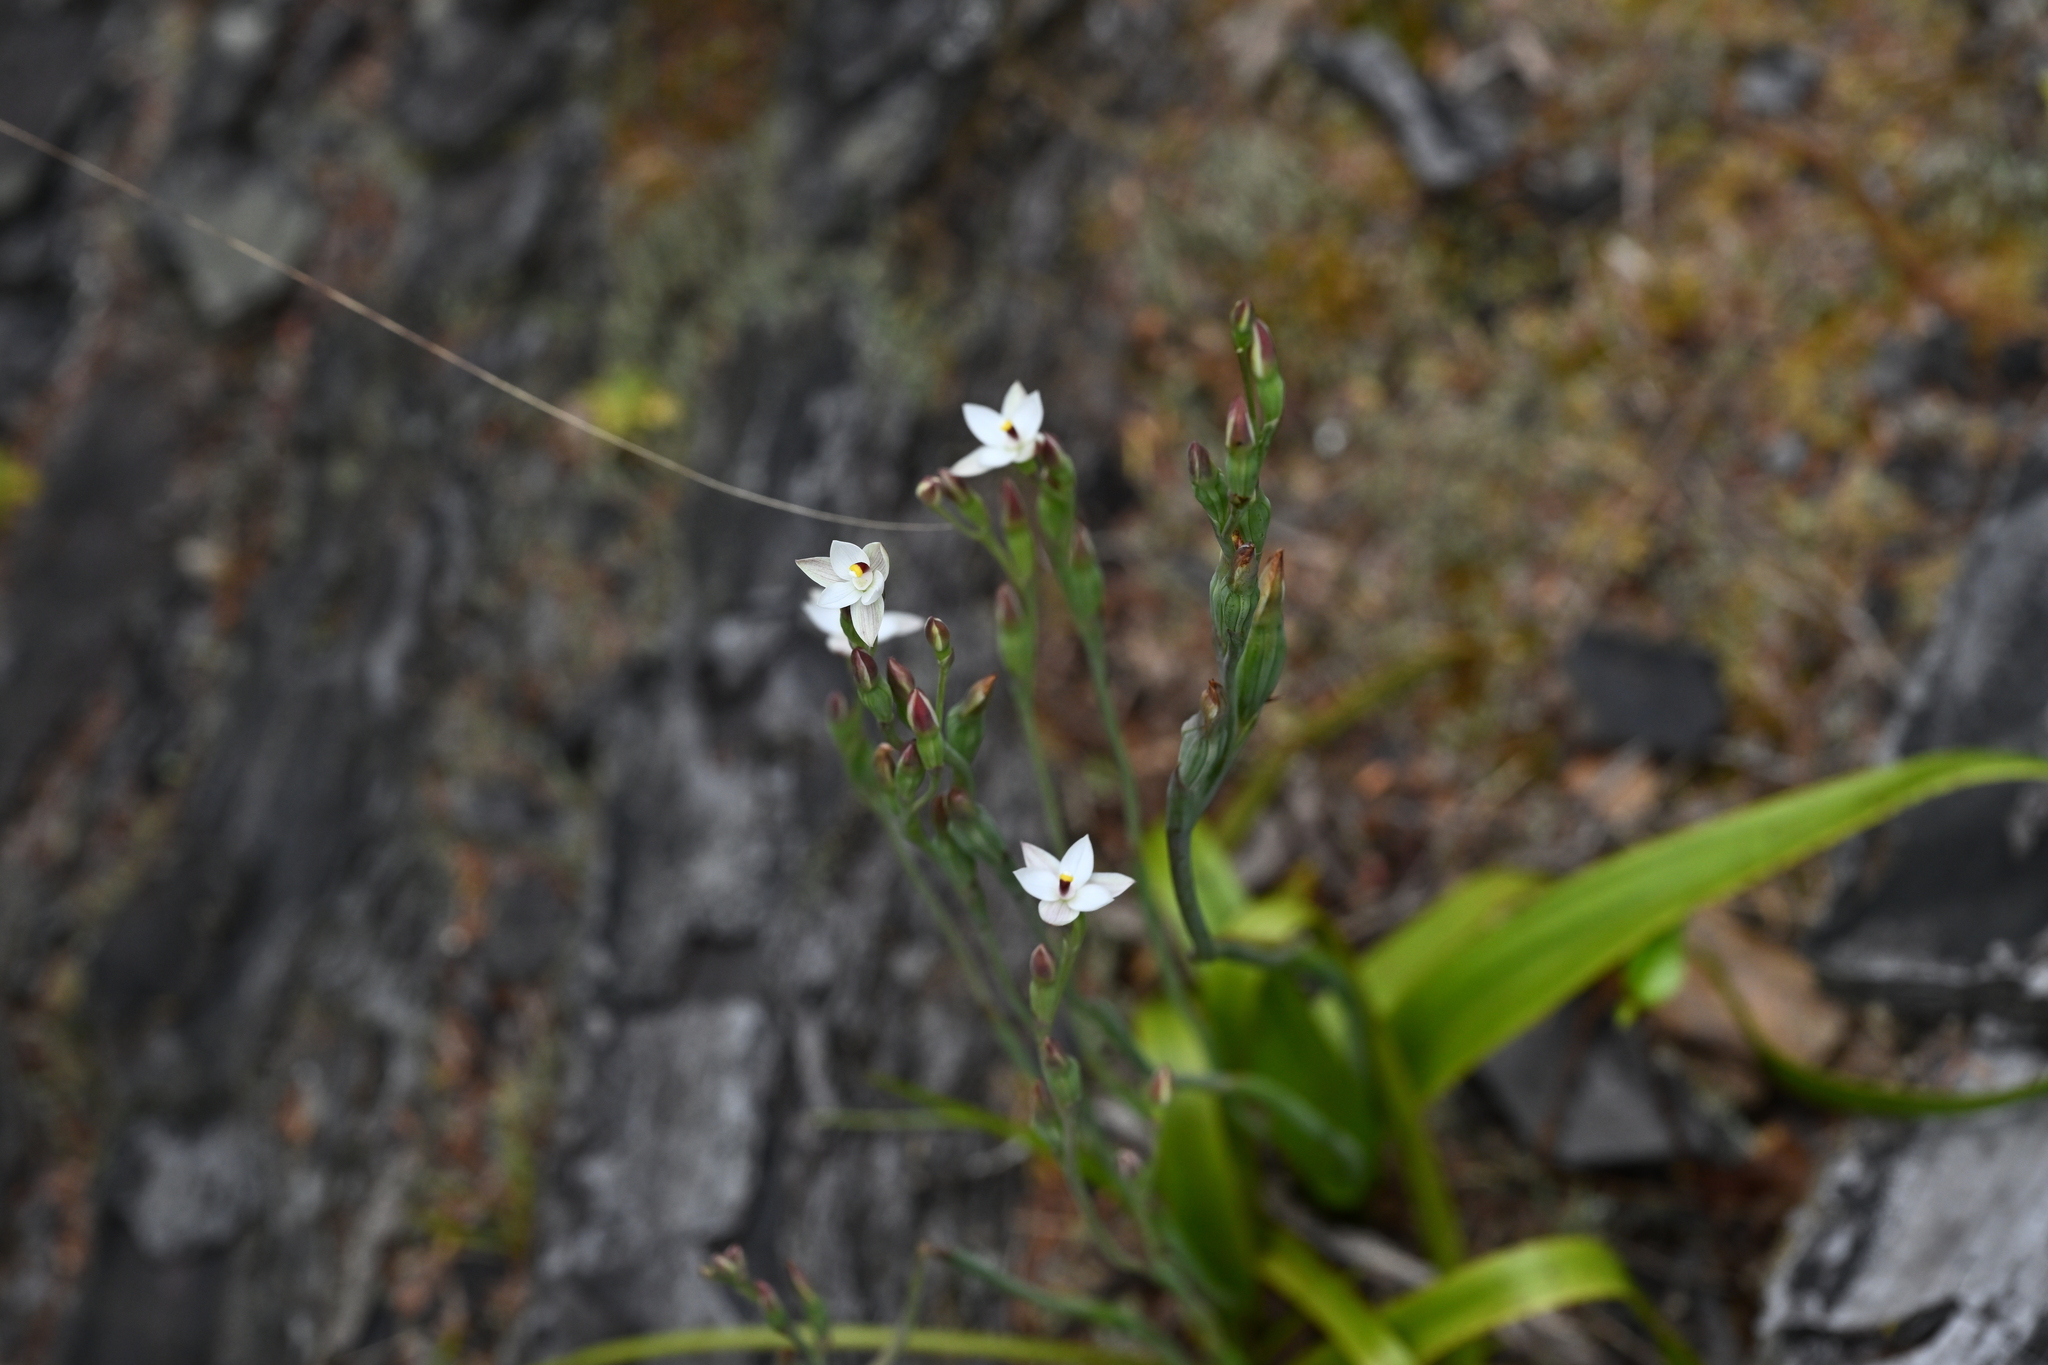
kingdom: Plantae
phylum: Tracheophyta
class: Liliopsida
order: Asparagales
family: Orchidaceae
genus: Thelymitra
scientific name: Thelymitra longifolia
